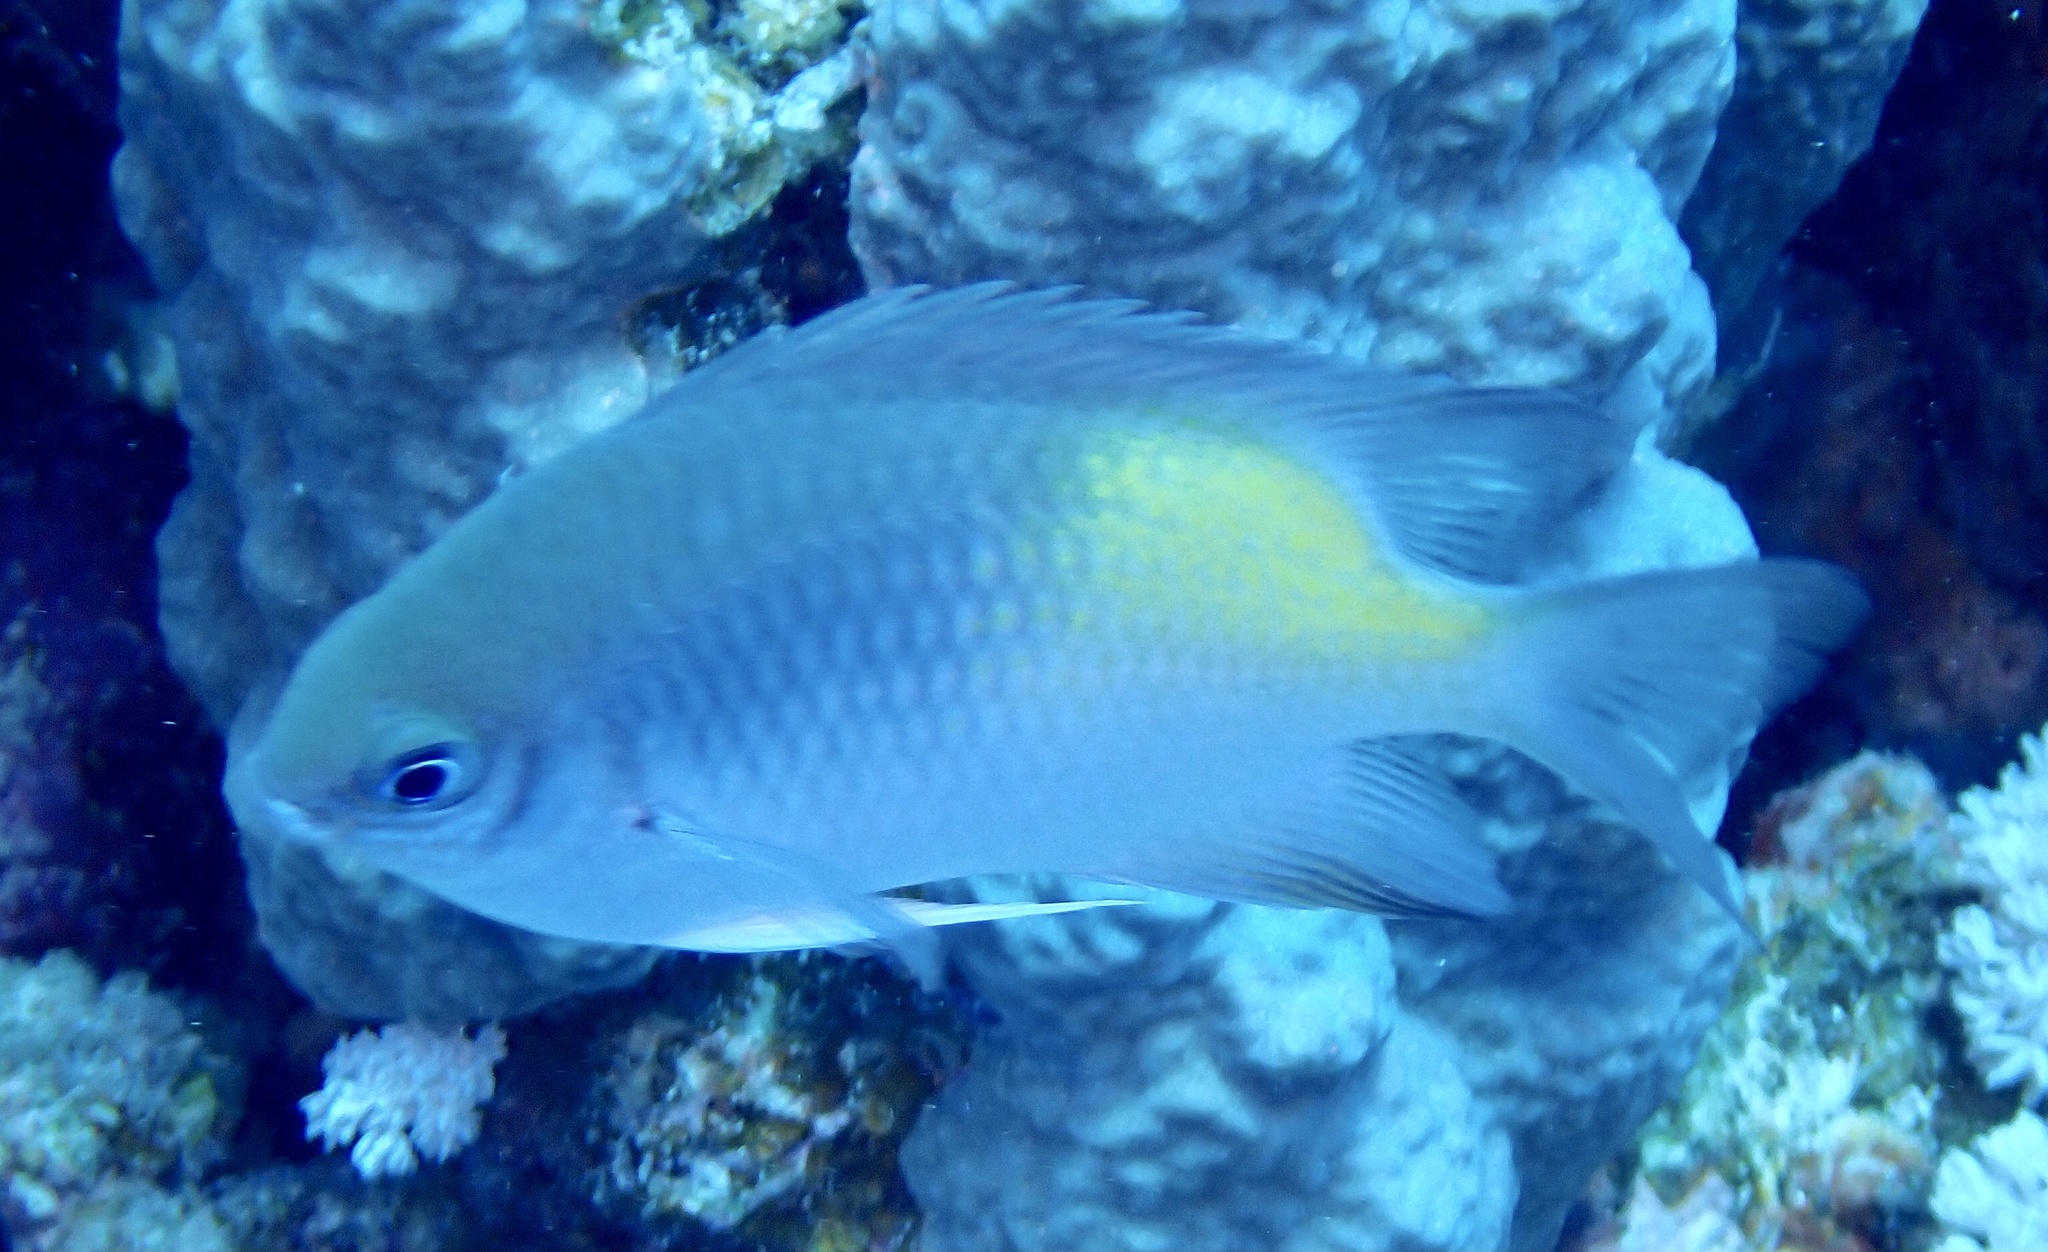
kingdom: Animalia
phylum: Chordata
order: Perciformes
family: Pomacentridae
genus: Amblyglyphidodon
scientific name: Amblyglyphidodon flavilatus
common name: Yellowfin damsel
